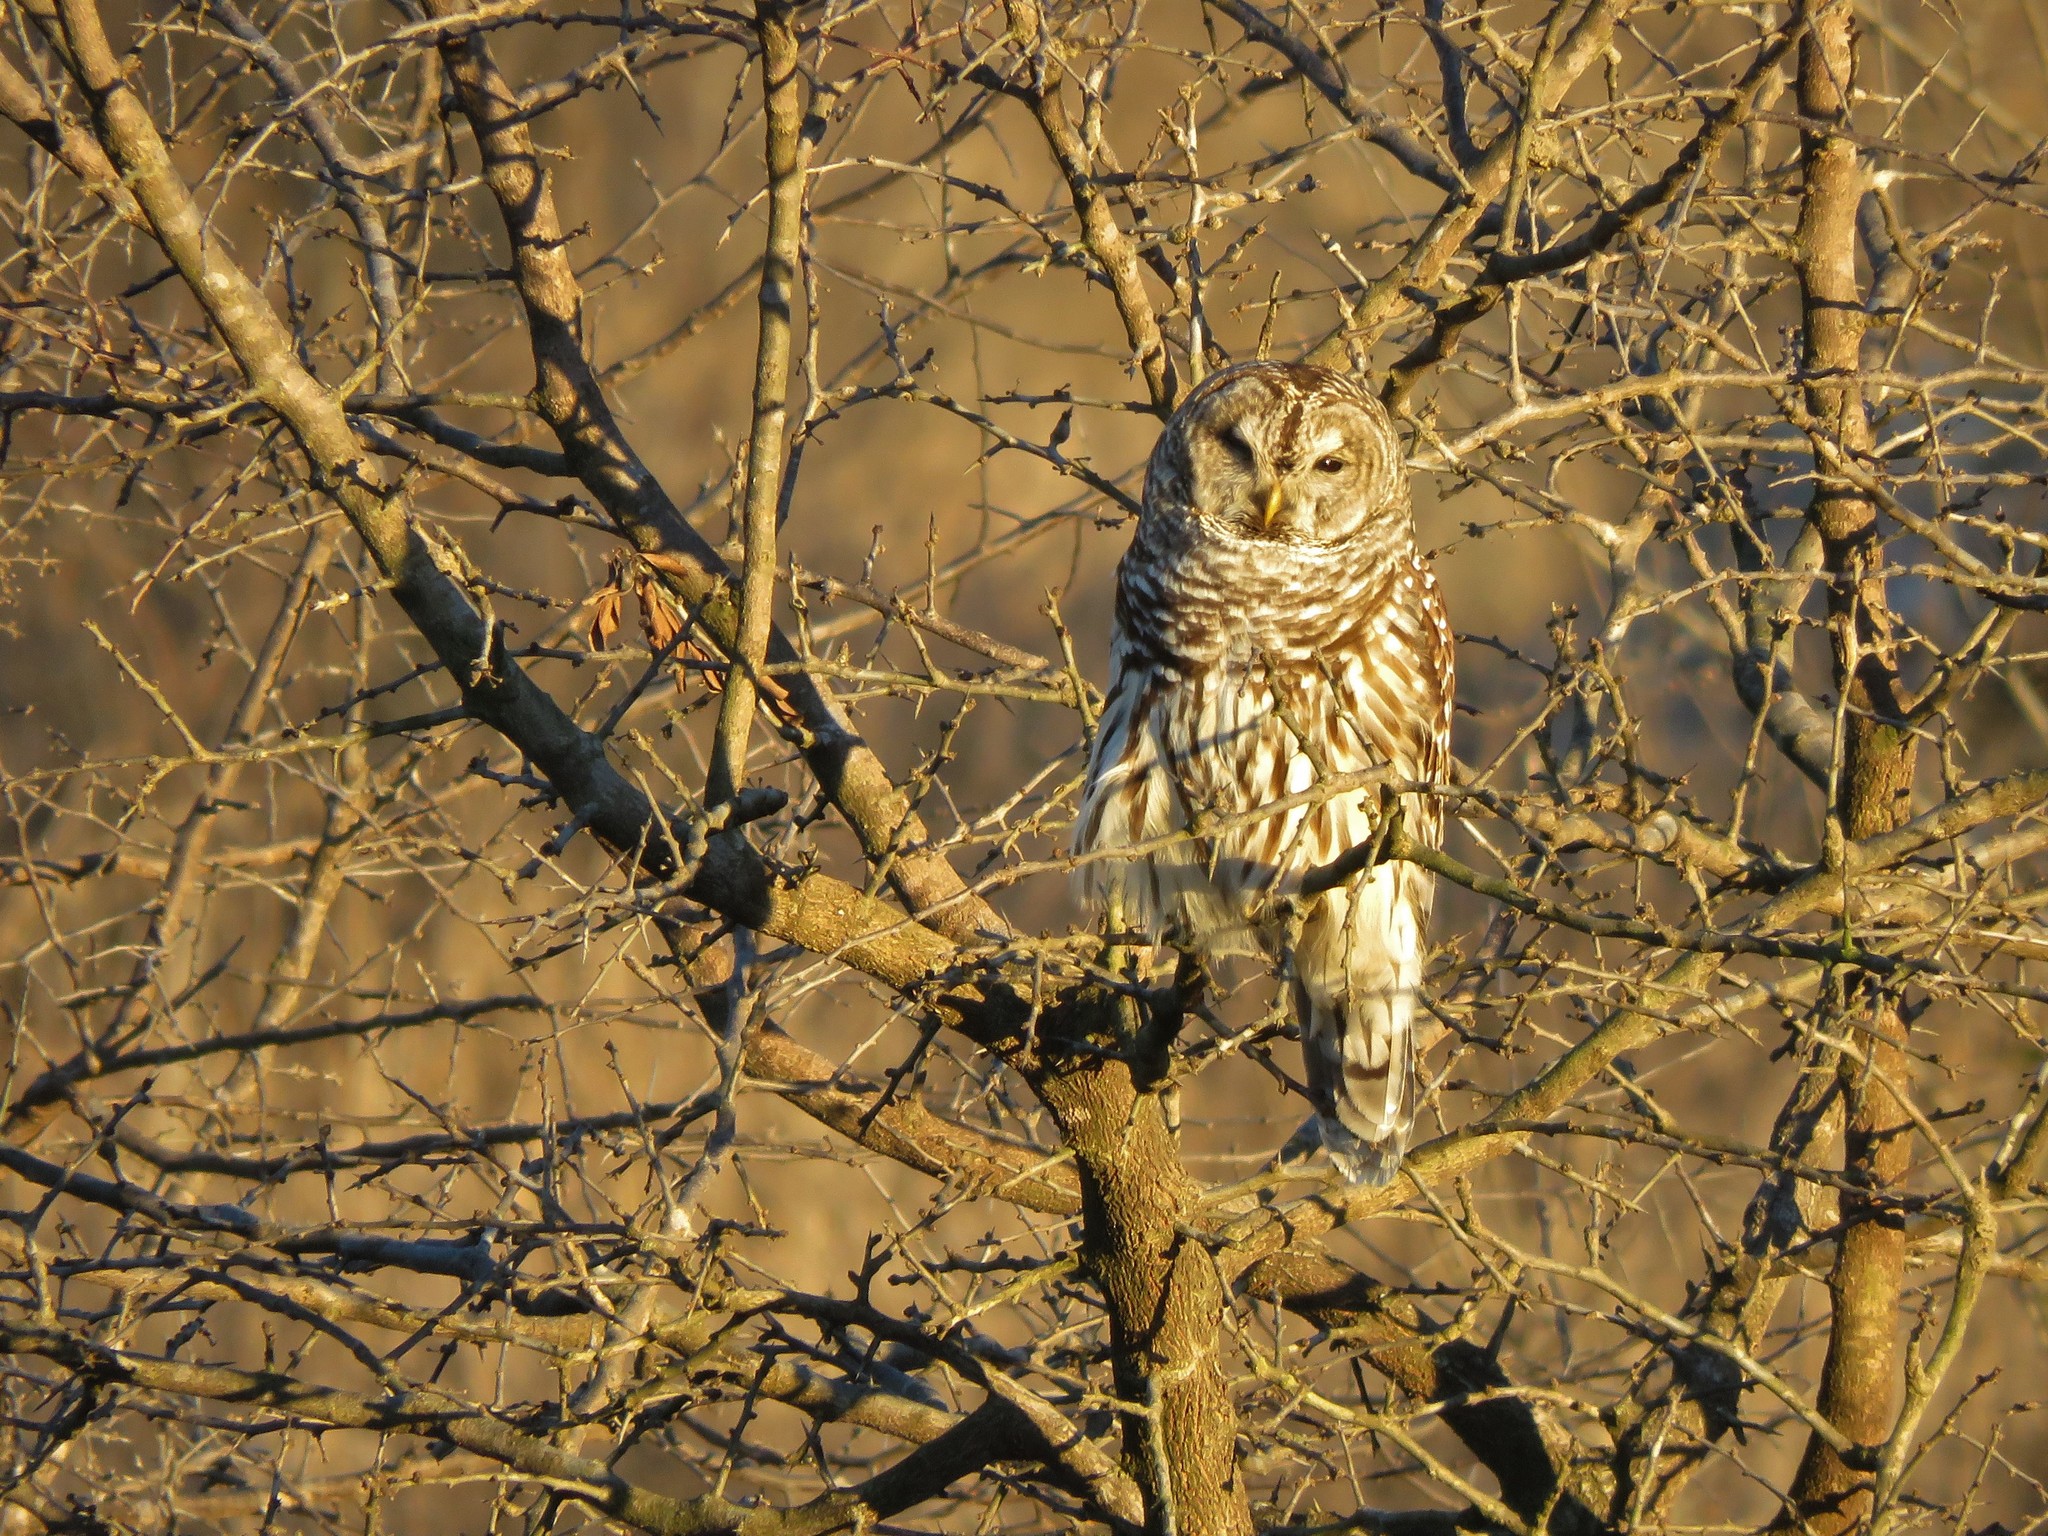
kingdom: Animalia
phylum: Chordata
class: Aves
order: Strigiformes
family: Strigidae
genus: Strix
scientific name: Strix varia
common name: Barred owl
